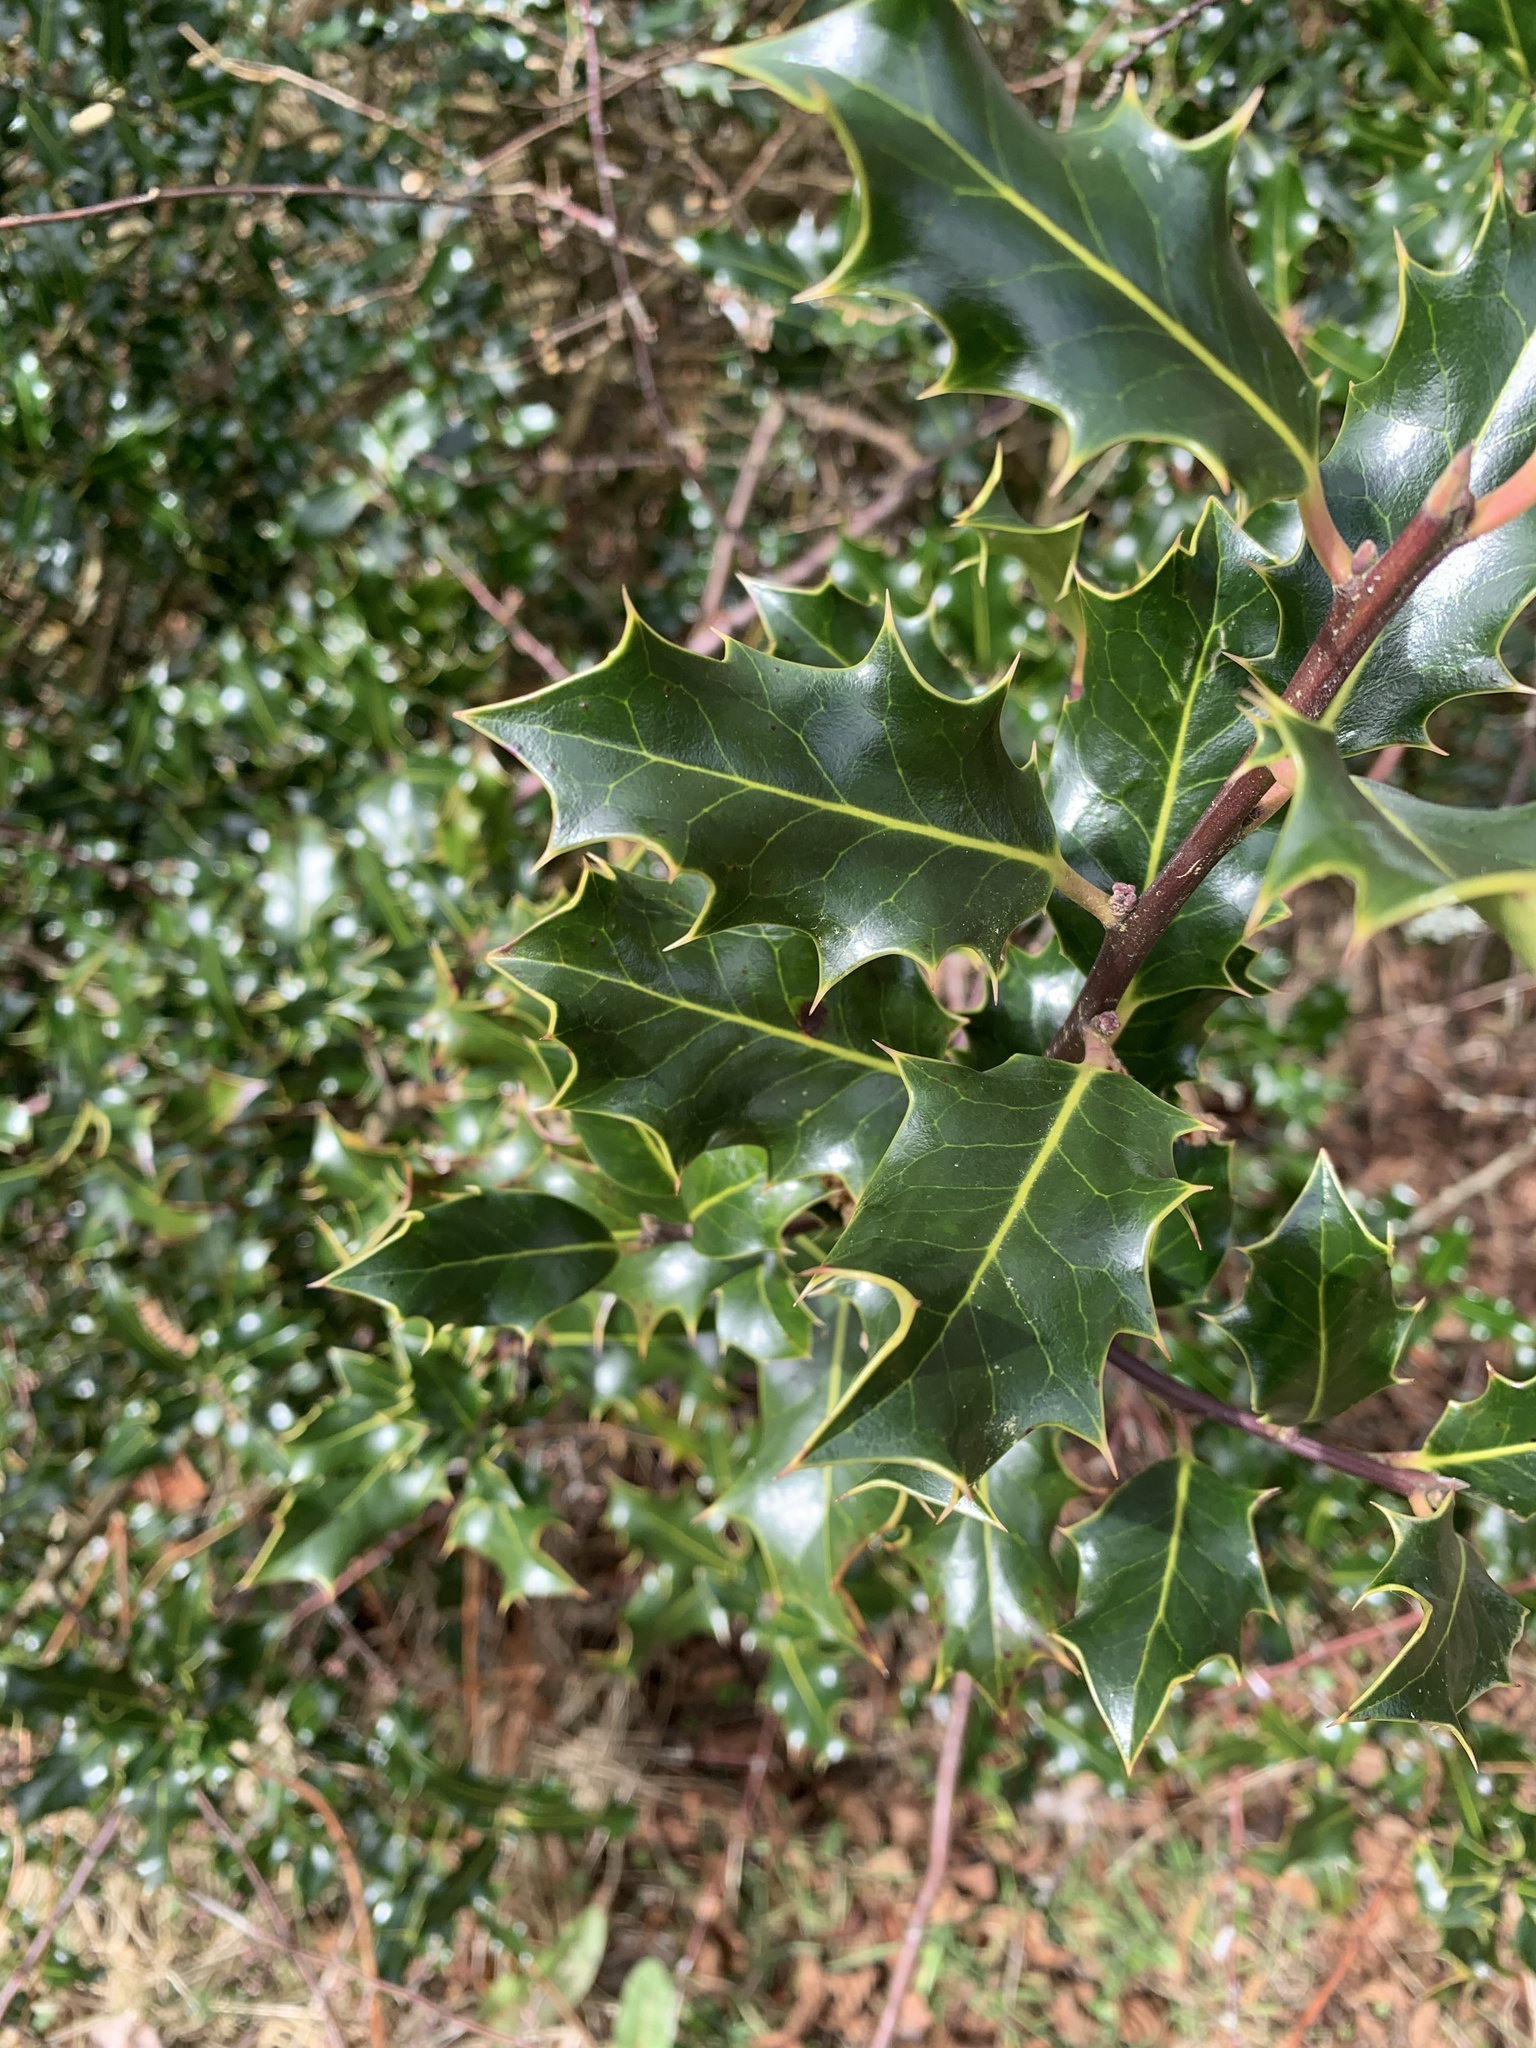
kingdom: Plantae
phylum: Tracheophyta
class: Magnoliopsida
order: Aquifoliales
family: Aquifoliaceae
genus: Ilex
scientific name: Ilex aquifolium
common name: English holly
